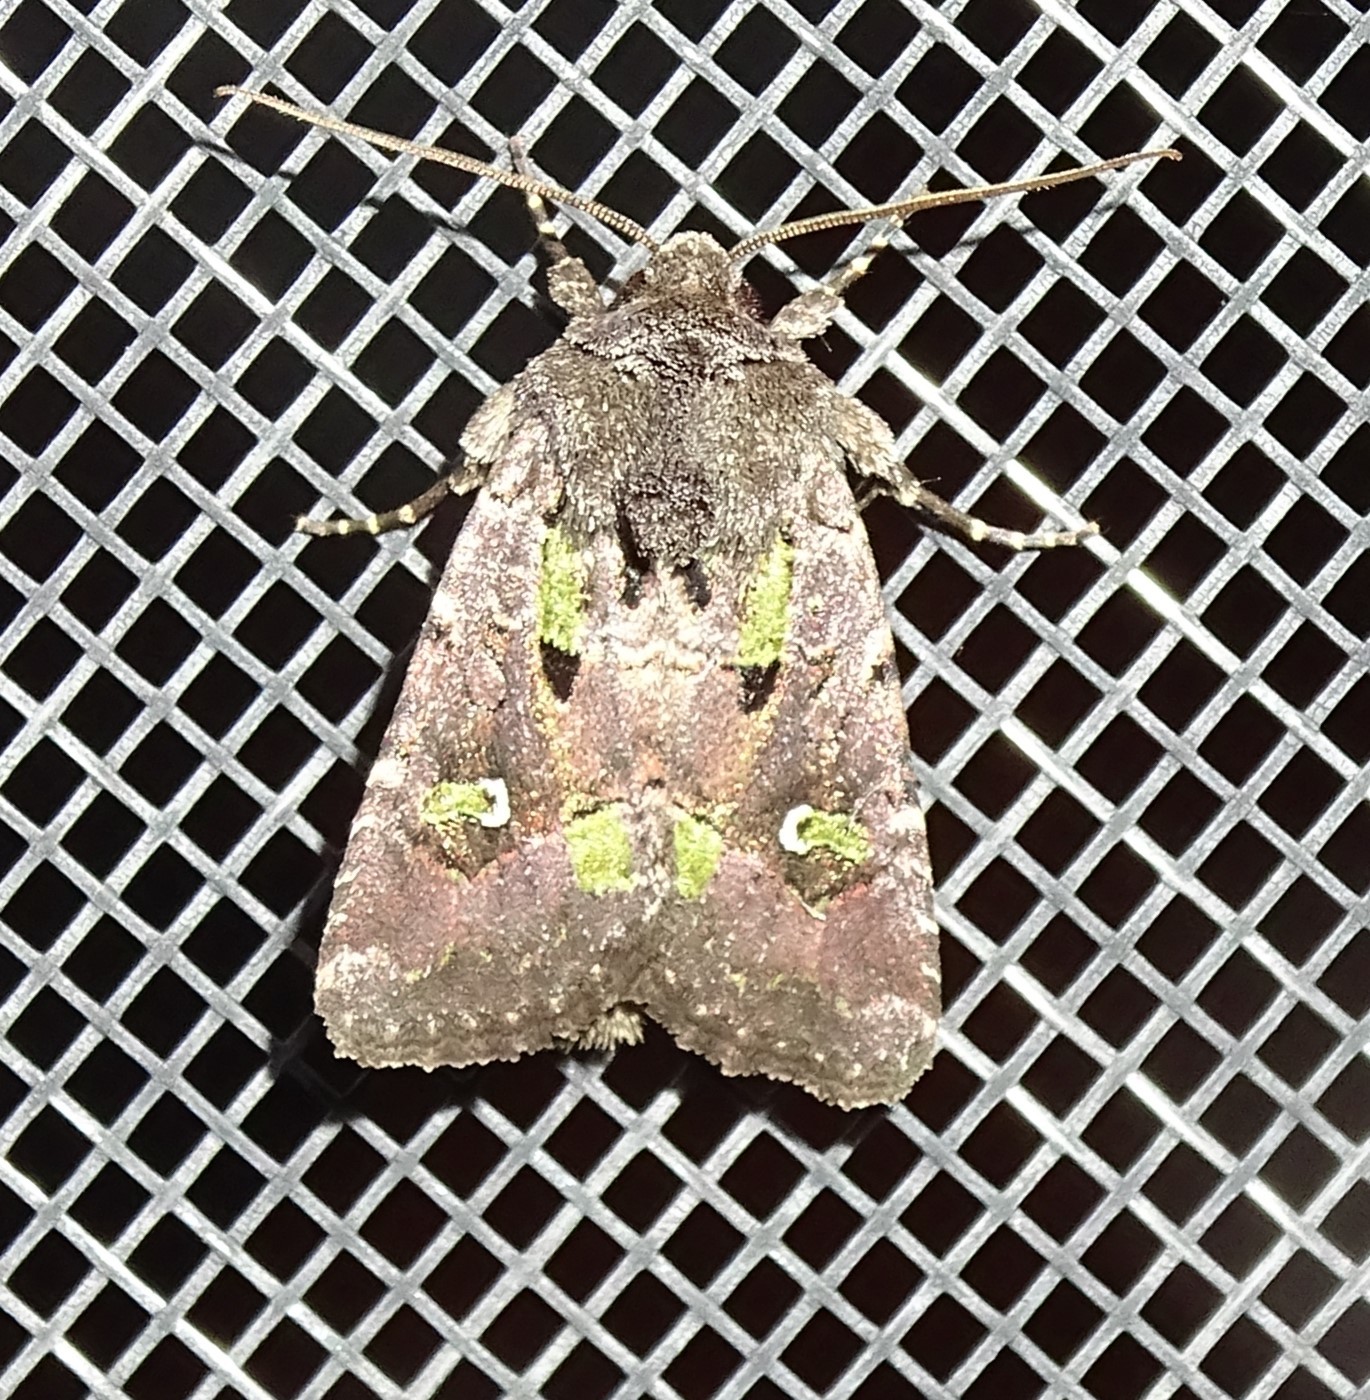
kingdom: Animalia
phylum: Arthropoda
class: Insecta
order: Lepidoptera
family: Noctuidae
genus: Lacinipolia
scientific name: Lacinipolia renigera
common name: Kidney-spotted minor
